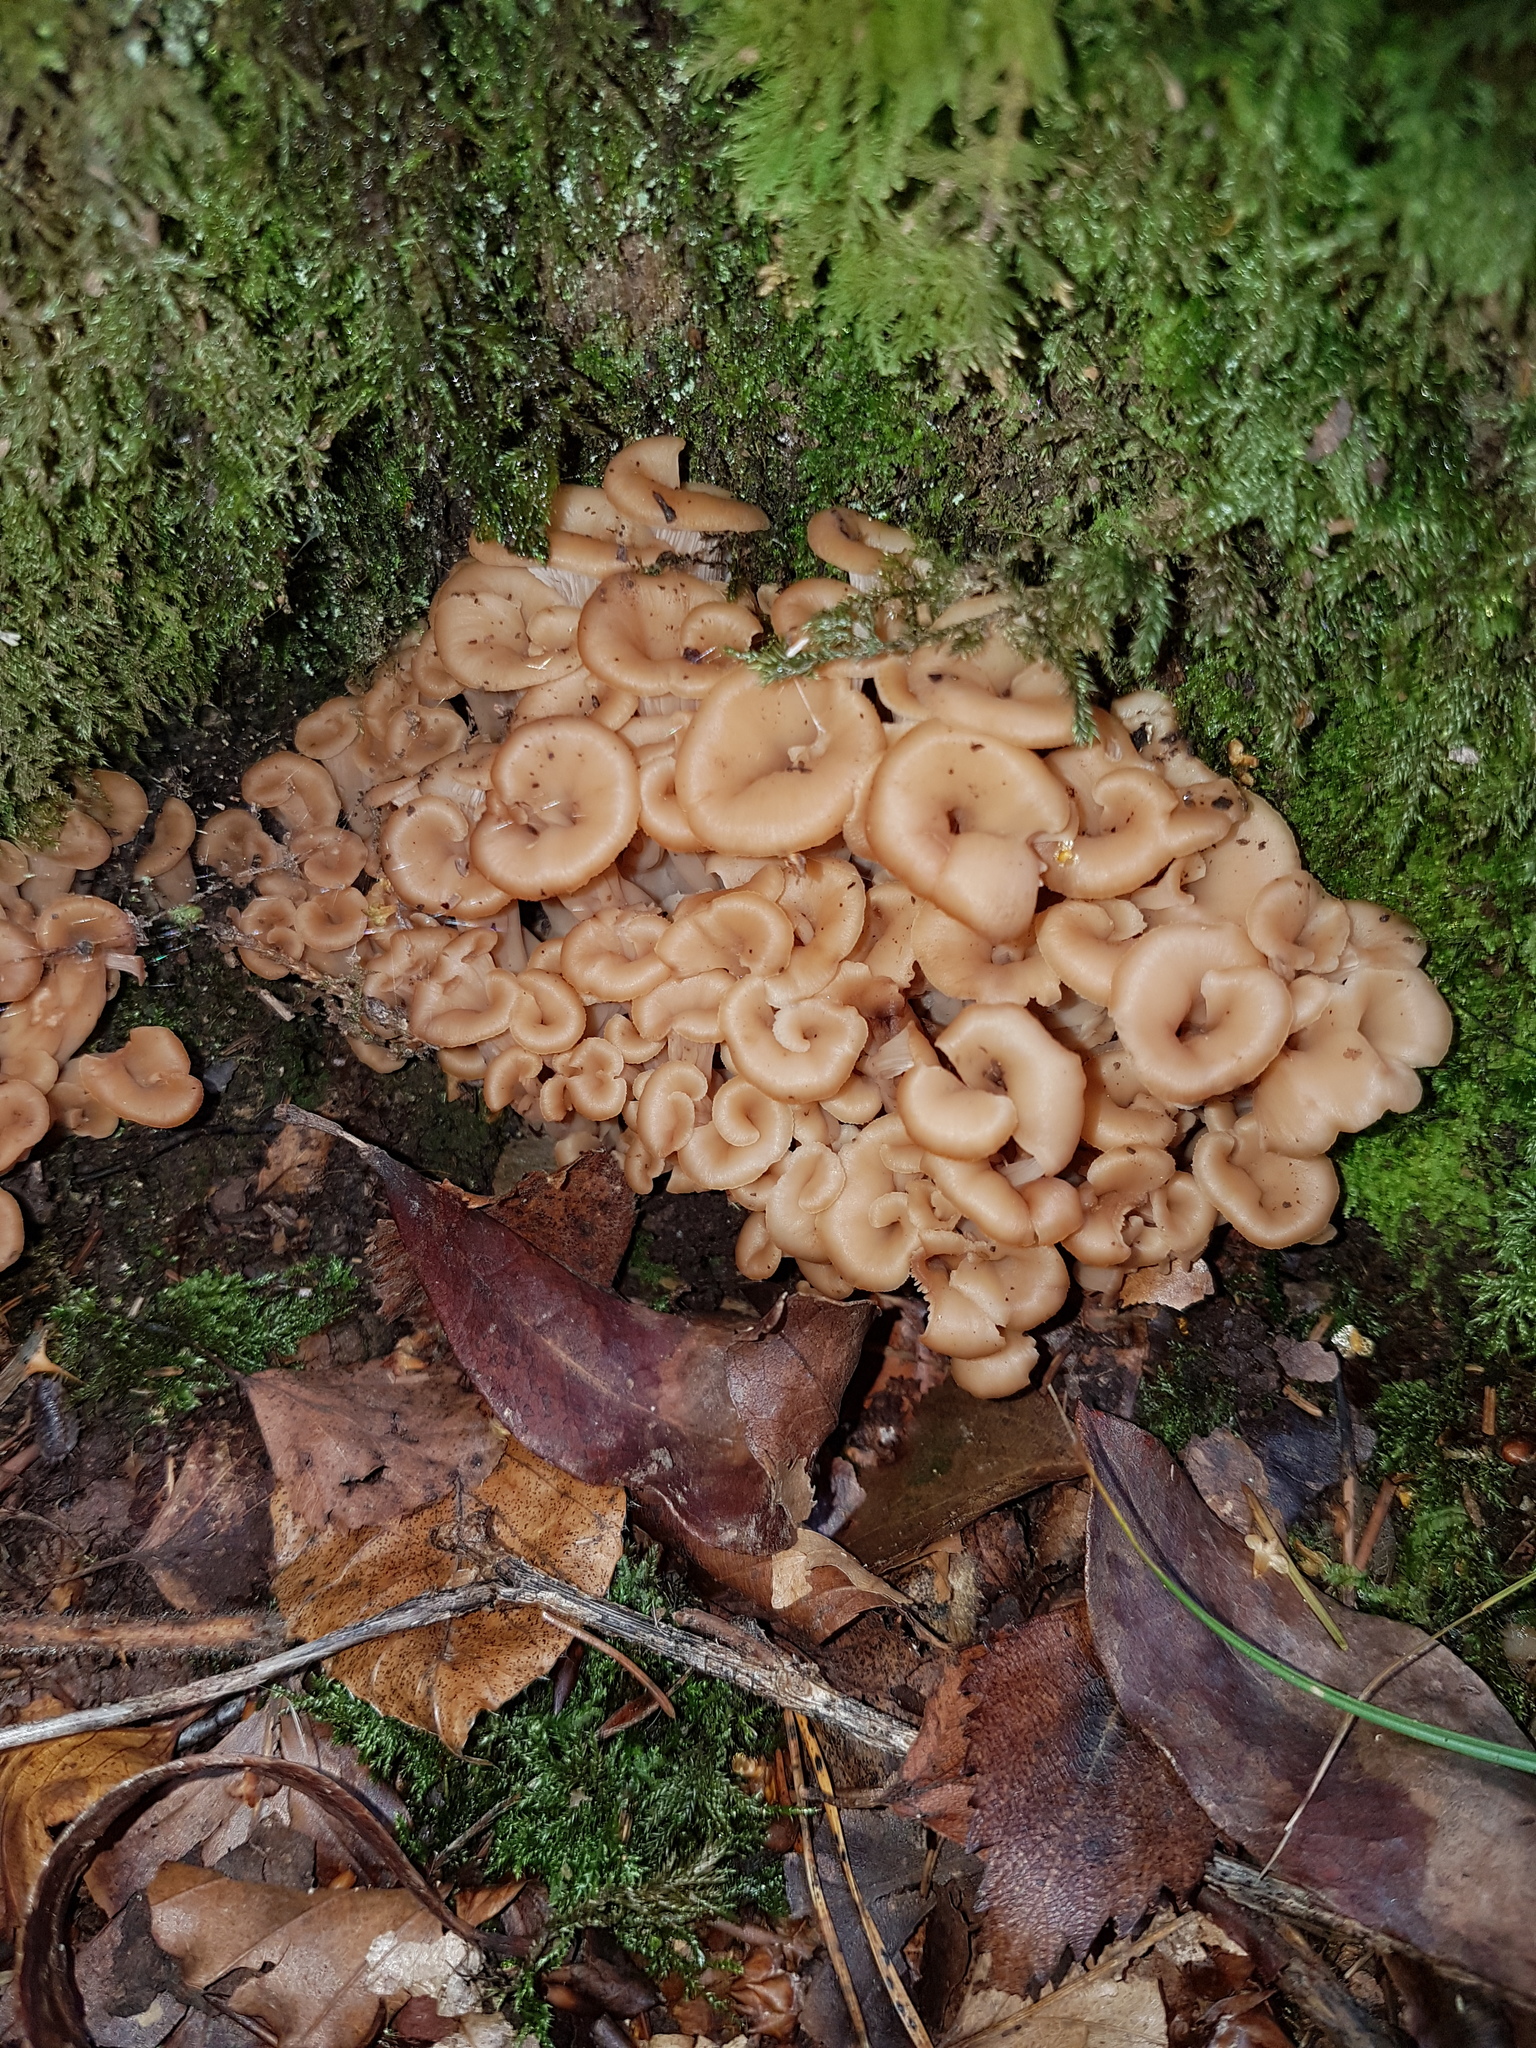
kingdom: Fungi
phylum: Basidiomycota
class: Agaricomycetes
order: Russulales
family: Auriscalpiaceae
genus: Lentinellus
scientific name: Lentinellus cochleatus
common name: Aniseed cockleshell
